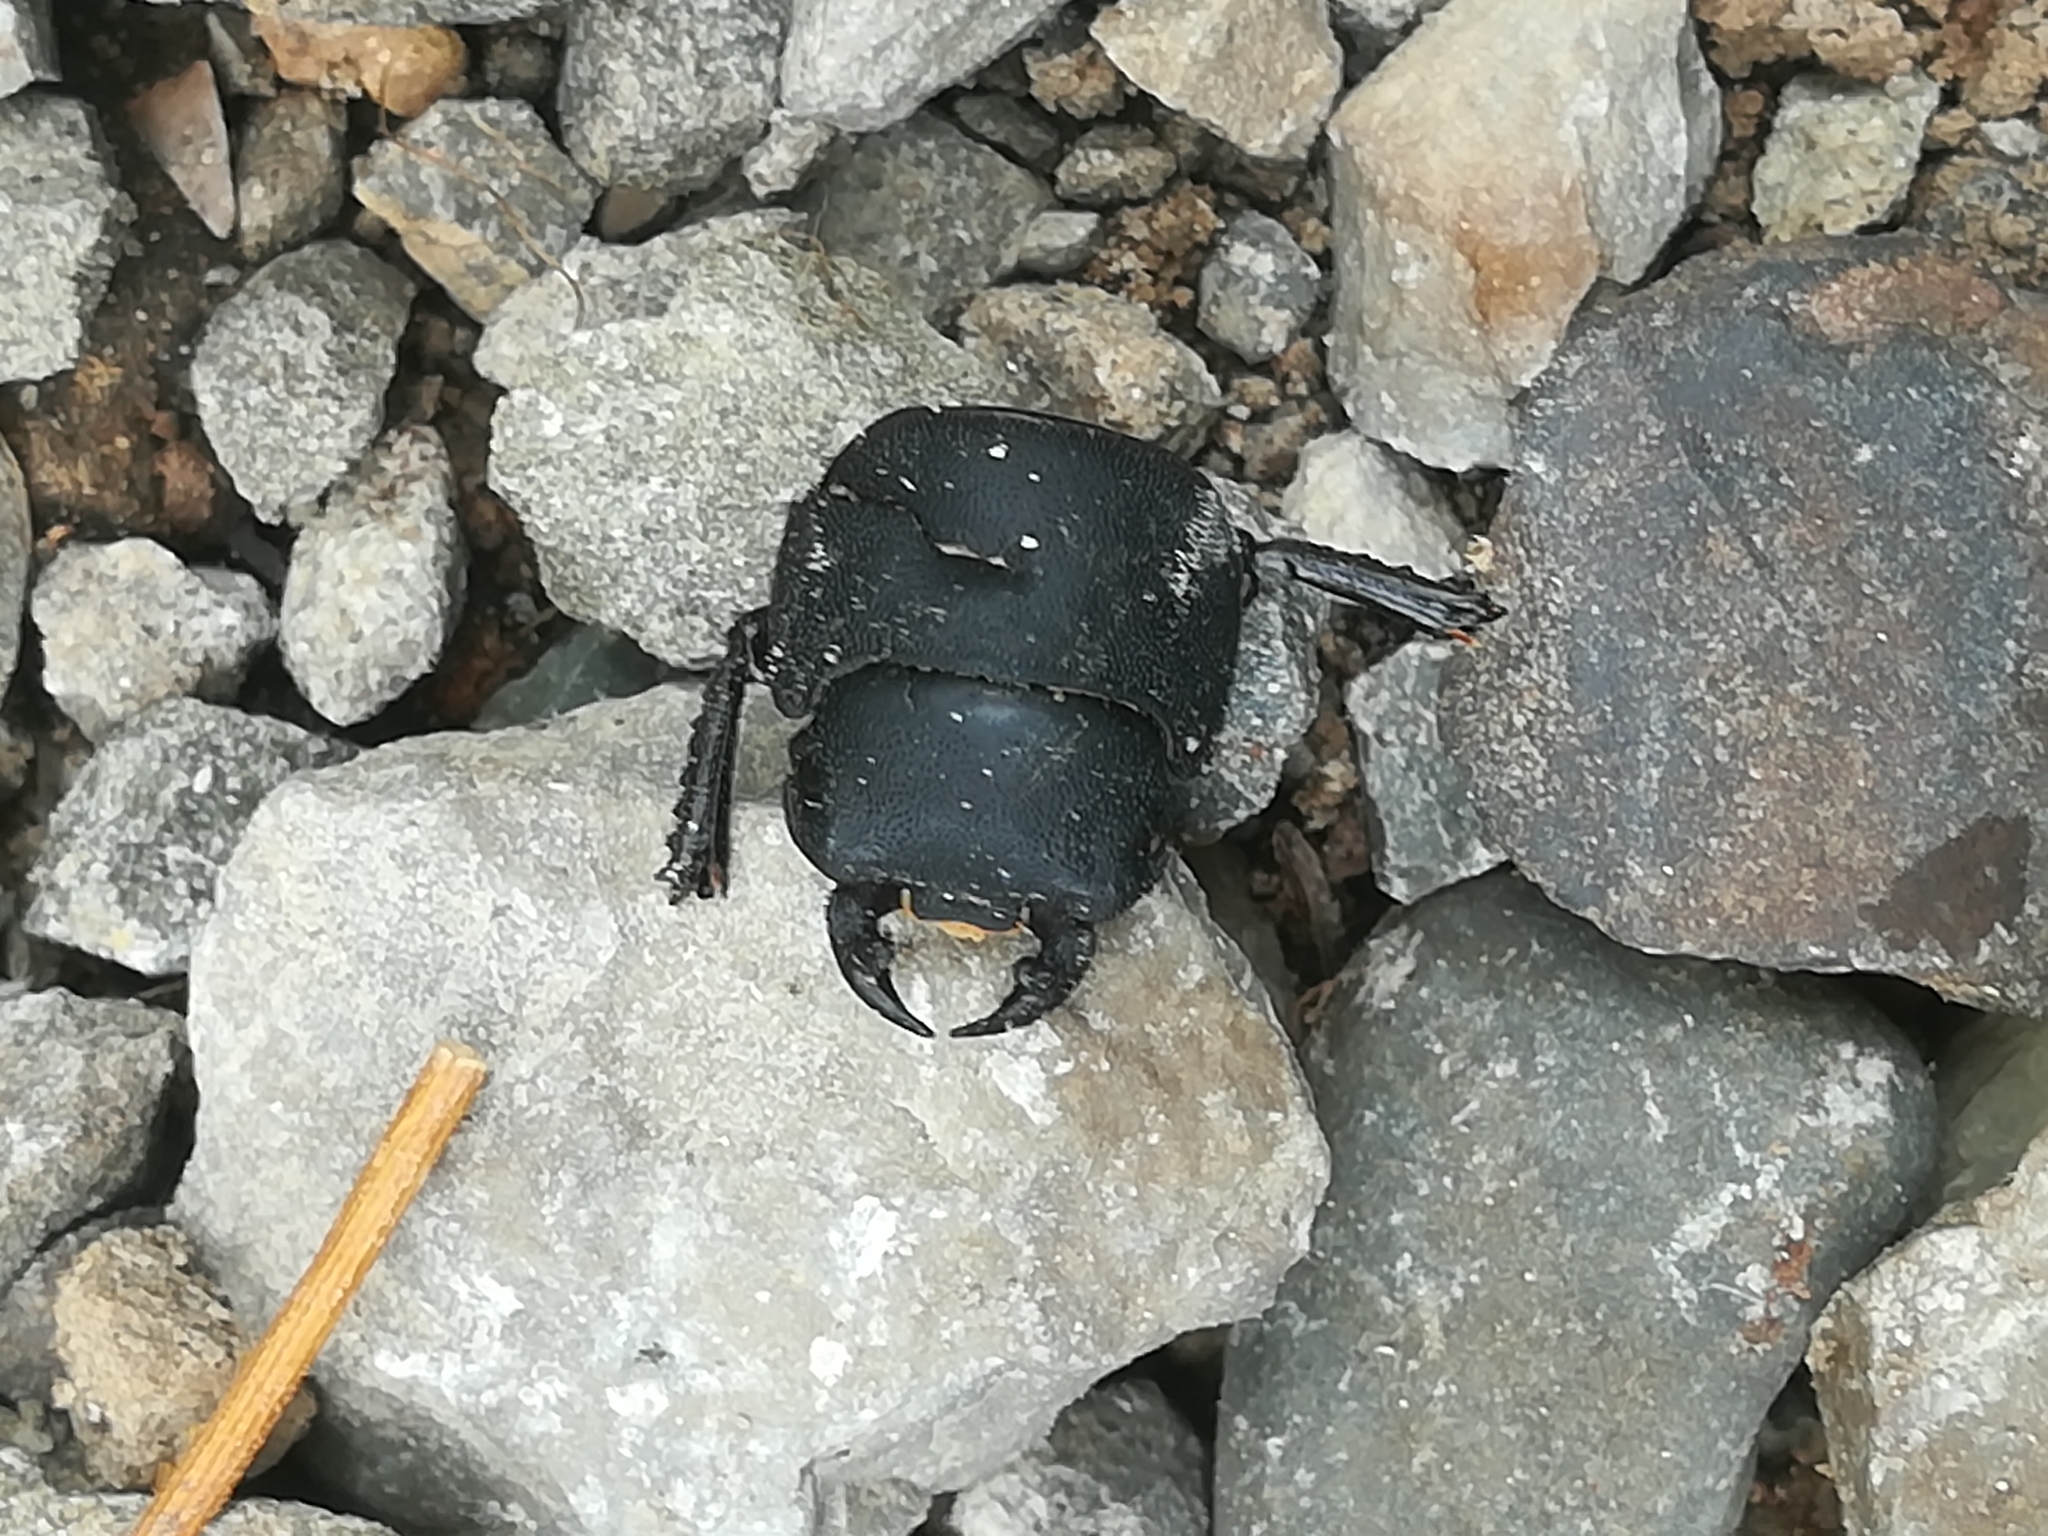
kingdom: Animalia
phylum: Arthropoda
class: Insecta
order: Coleoptera
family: Lucanidae
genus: Dorcus
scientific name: Dorcus parallelipipedus
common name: Lesser stag beetle
